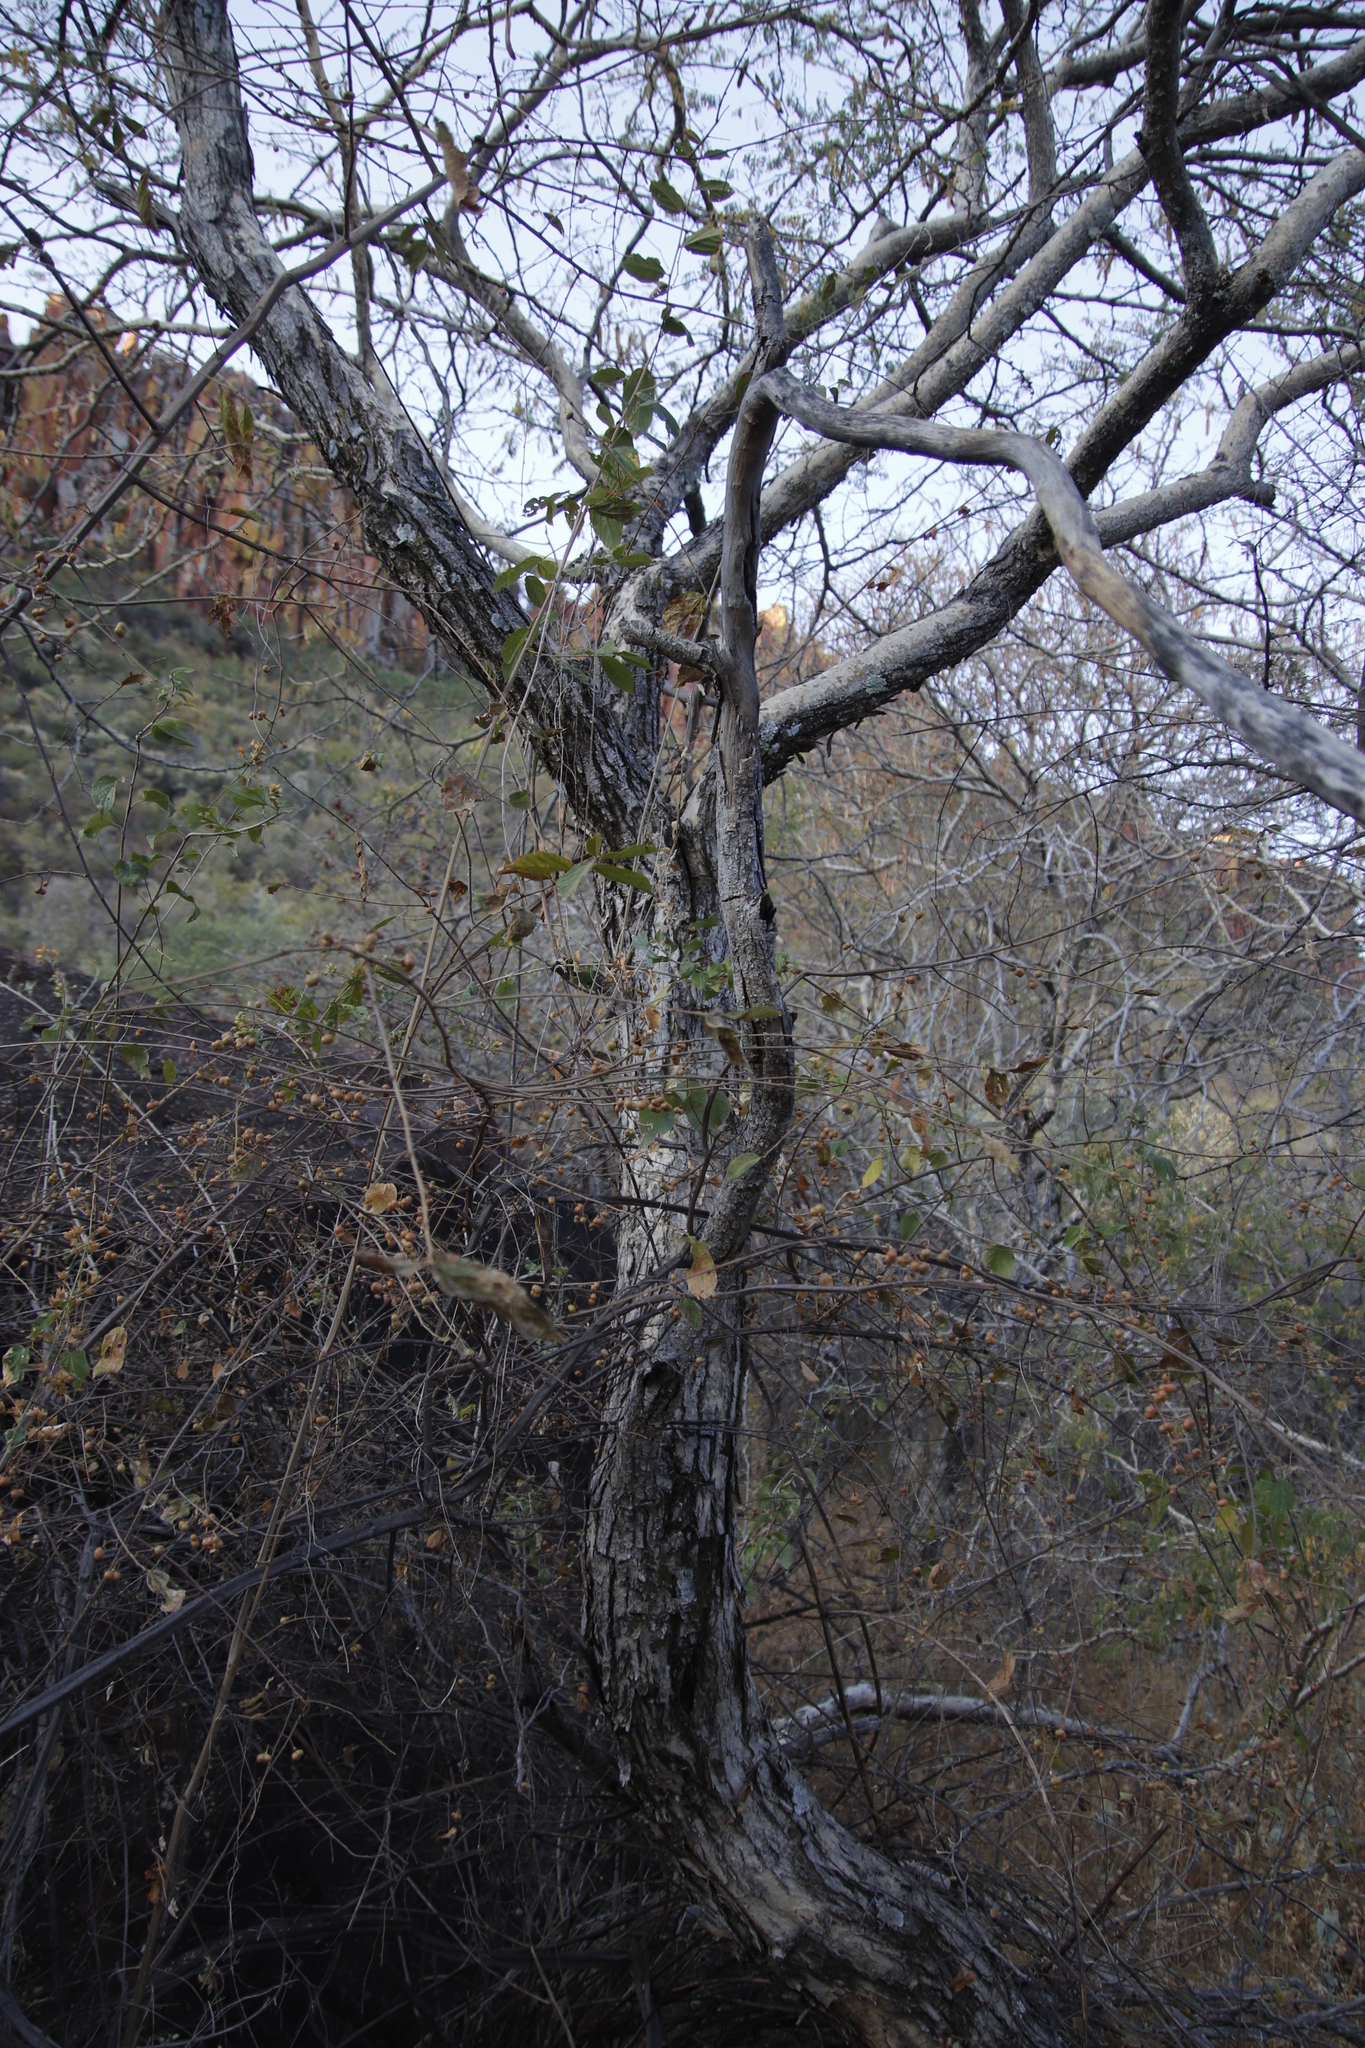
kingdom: Plantae
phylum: Tracheophyta
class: Magnoliopsida
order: Fabales
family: Fabaceae
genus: Senegalia
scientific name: Senegalia erubescens
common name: Bluethorn
